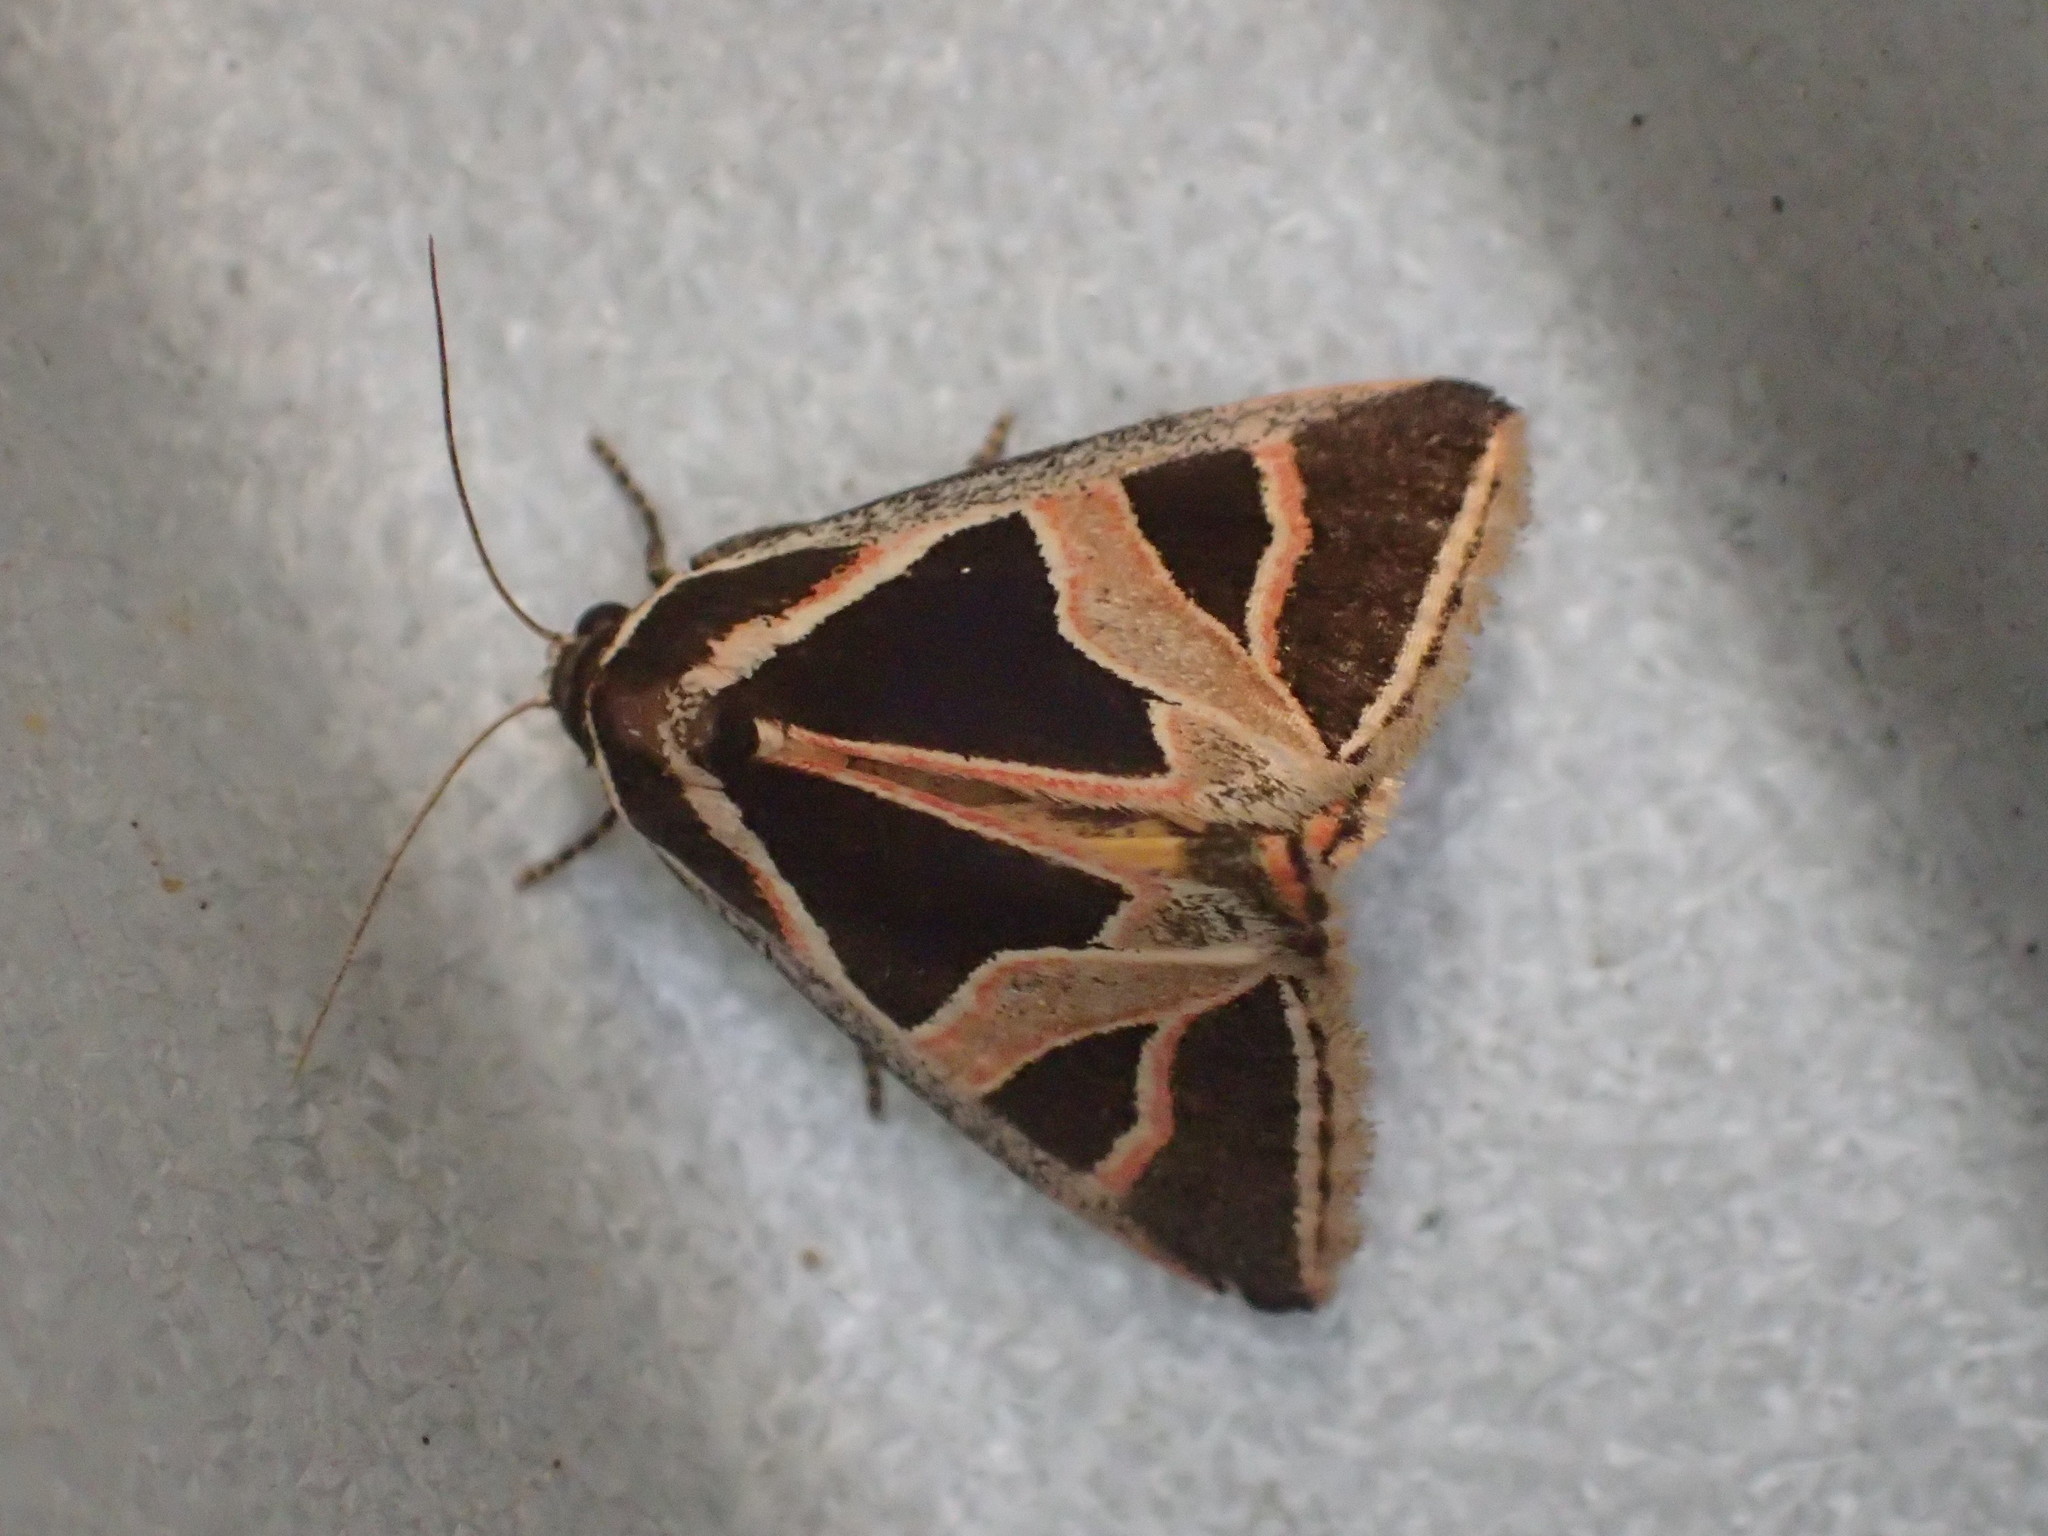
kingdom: Animalia
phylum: Arthropoda
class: Insecta
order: Lepidoptera
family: Noctuidae
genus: Xenogenes
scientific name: Xenogenes gloriosa
